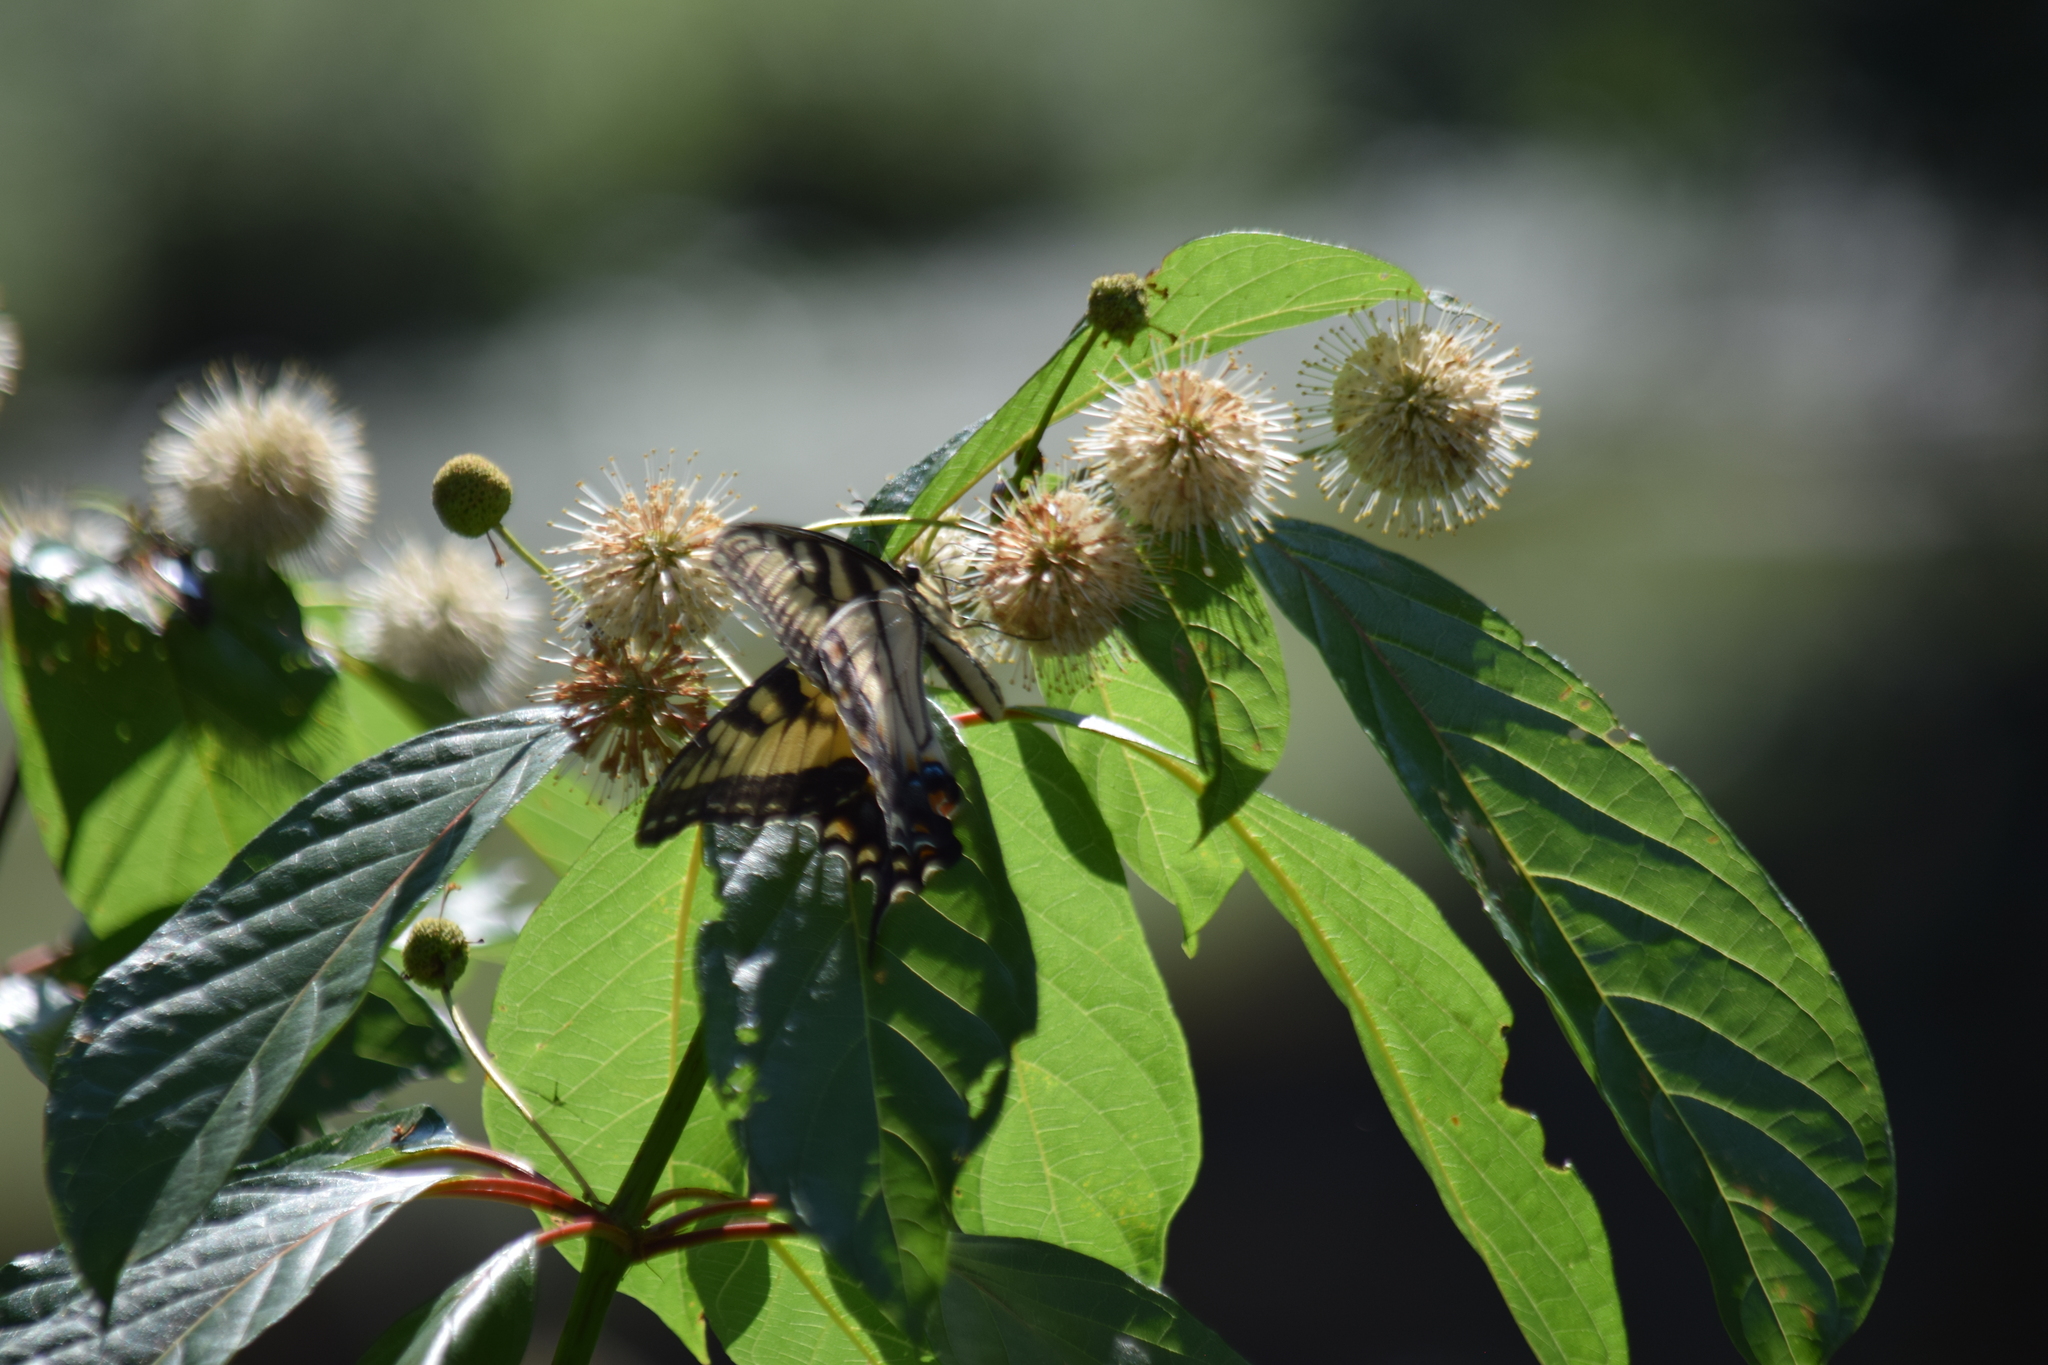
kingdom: Animalia
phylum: Arthropoda
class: Insecta
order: Lepidoptera
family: Papilionidae
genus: Papilio
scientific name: Papilio glaucus
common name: Tiger swallowtail
